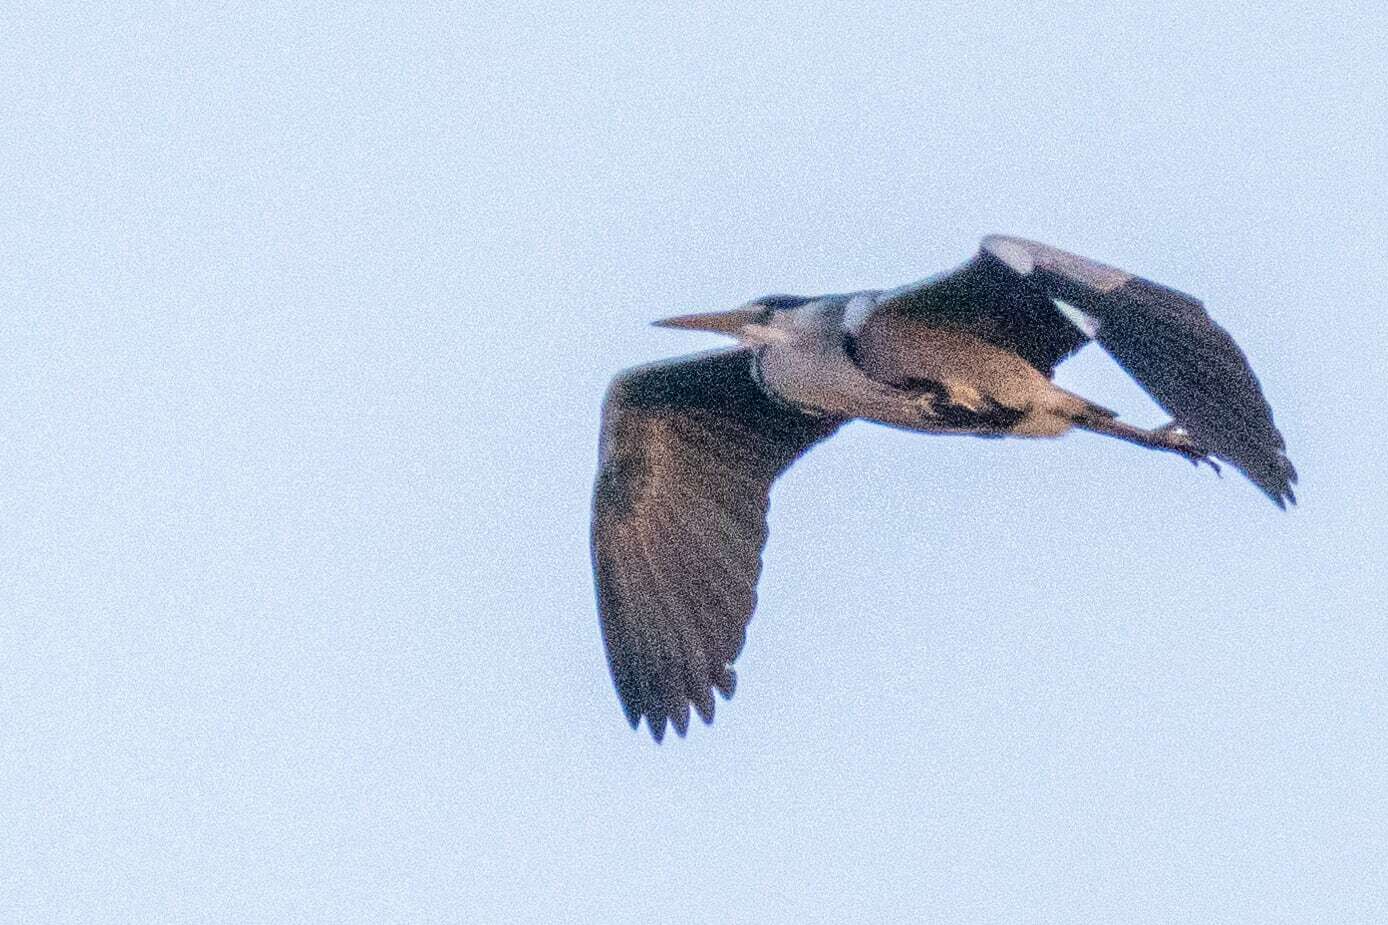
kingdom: Animalia
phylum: Chordata
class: Aves
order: Pelecaniformes
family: Ardeidae
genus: Ardea
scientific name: Ardea cinerea
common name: Grey heron
